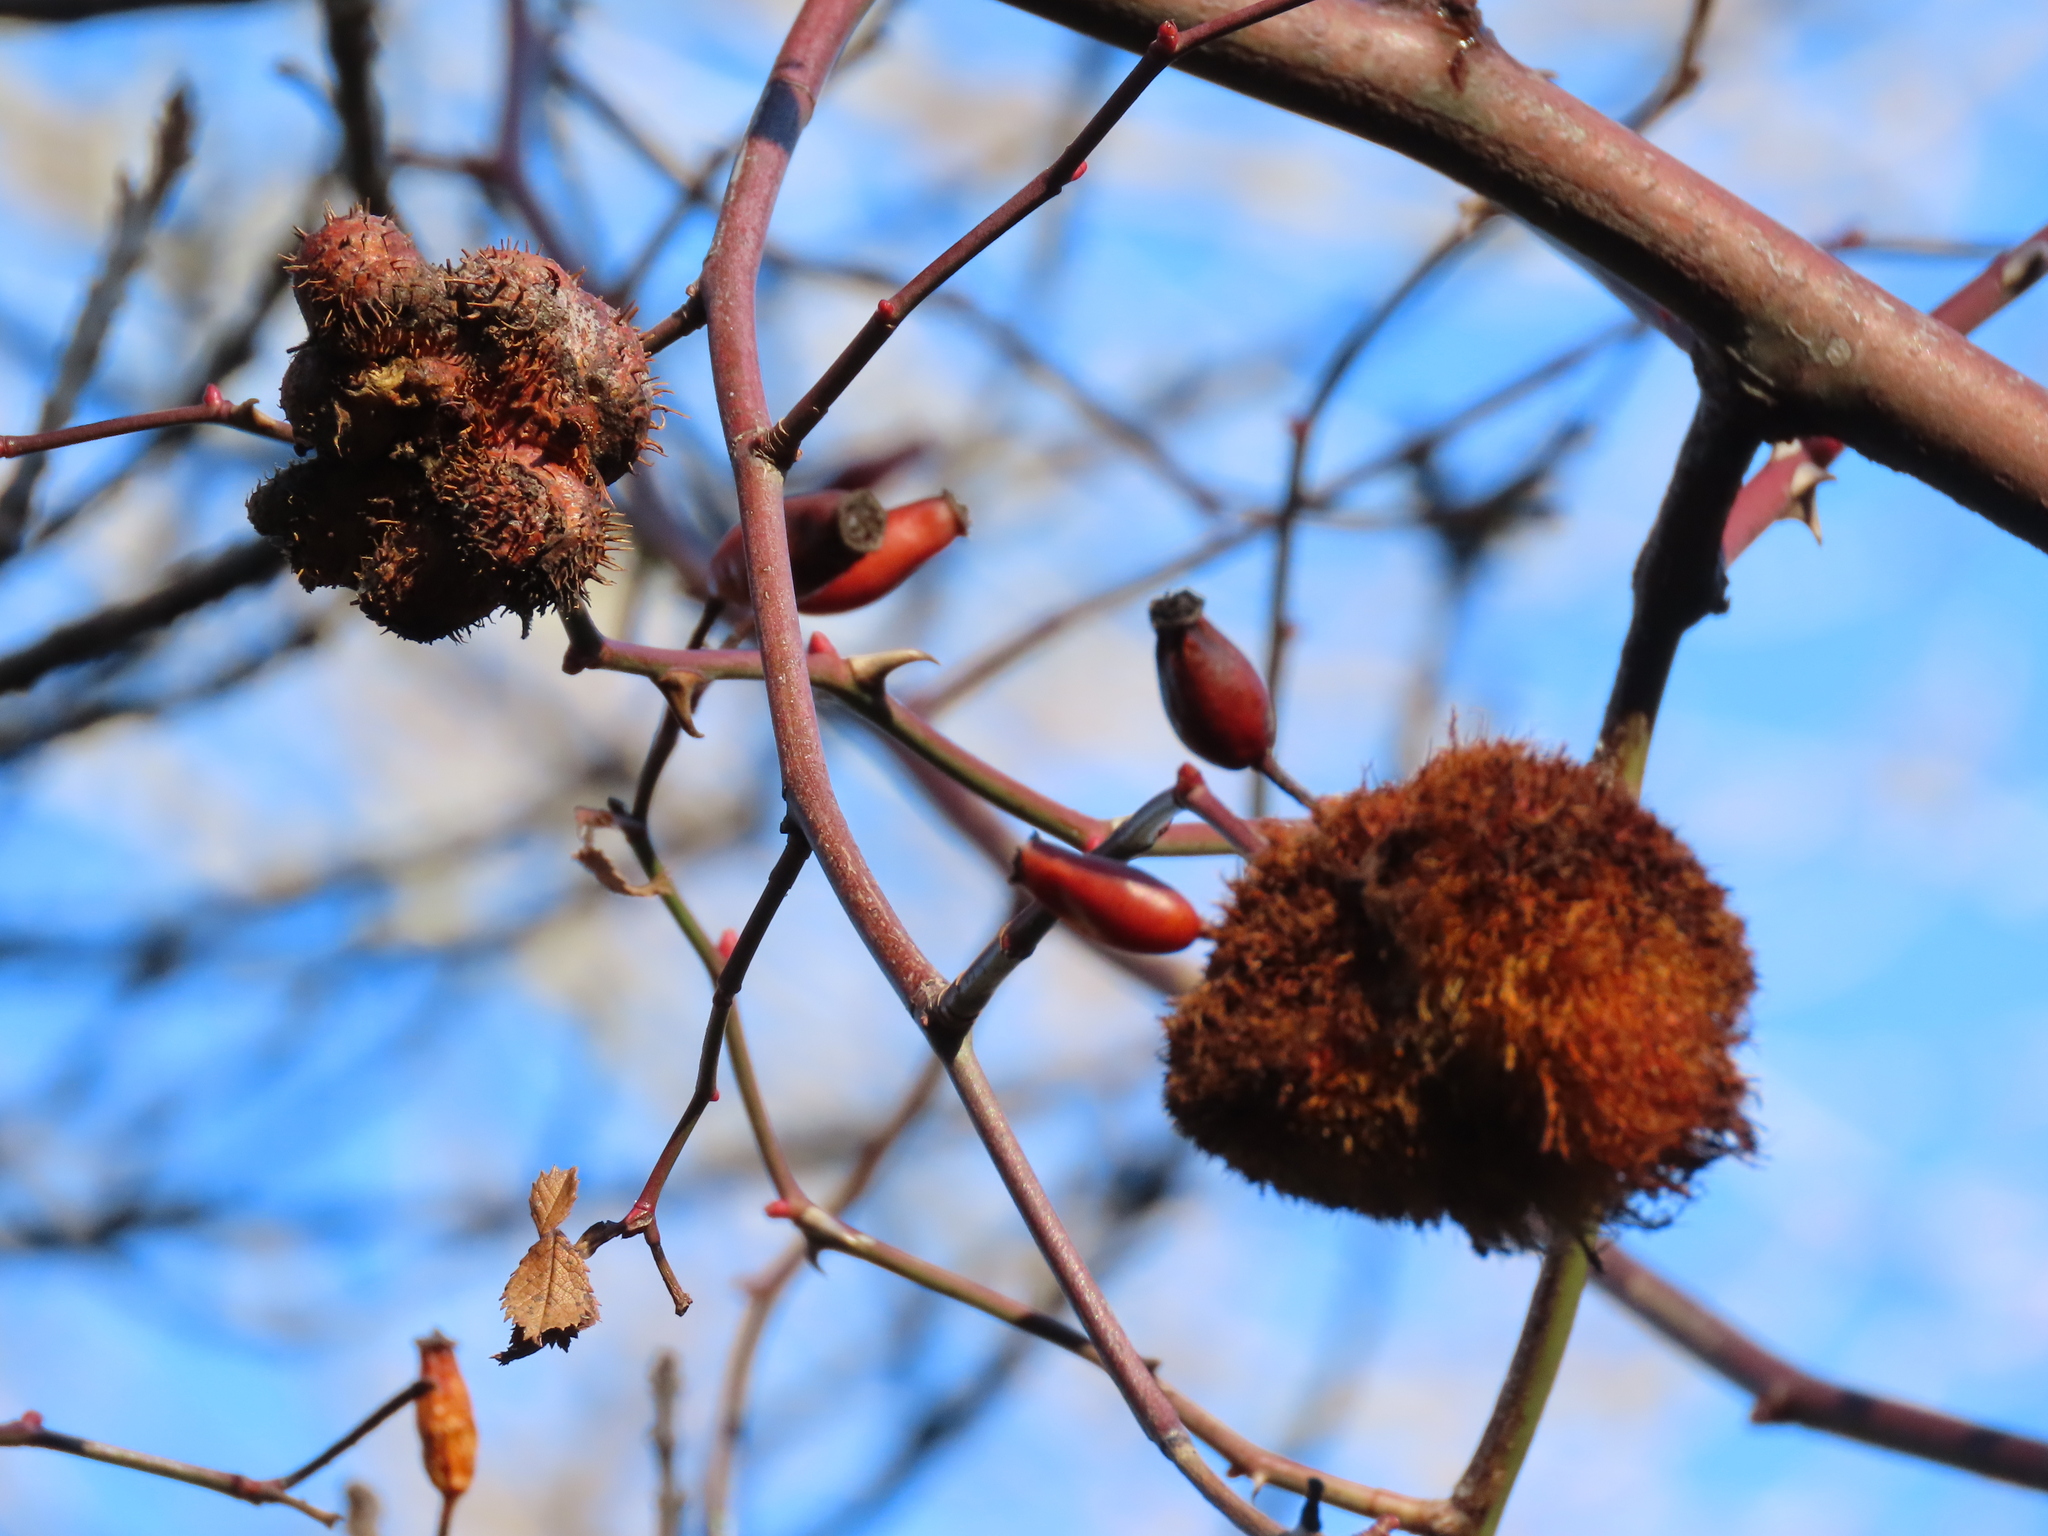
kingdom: Animalia
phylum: Arthropoda
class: Insecta
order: Hymenoptera
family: Cynipidae
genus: Diplolepis
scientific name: Diplolepis mayri
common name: Gall wasp
